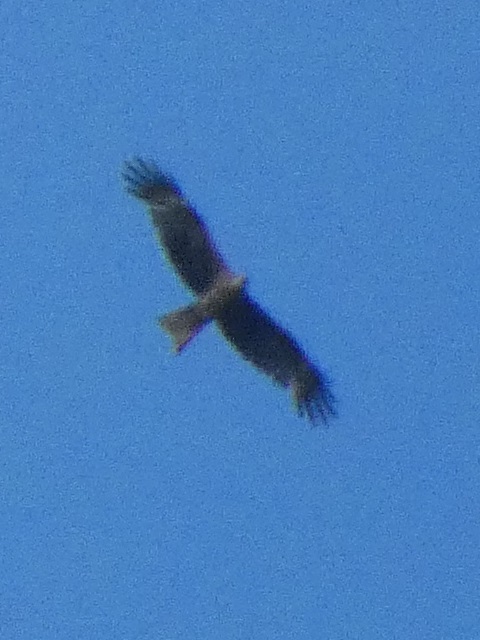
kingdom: Animalia
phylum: Chordata
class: Aves
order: Accipitriformes
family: Accipitridae
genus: Milvus
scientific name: Milvus migrans
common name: Black kite
